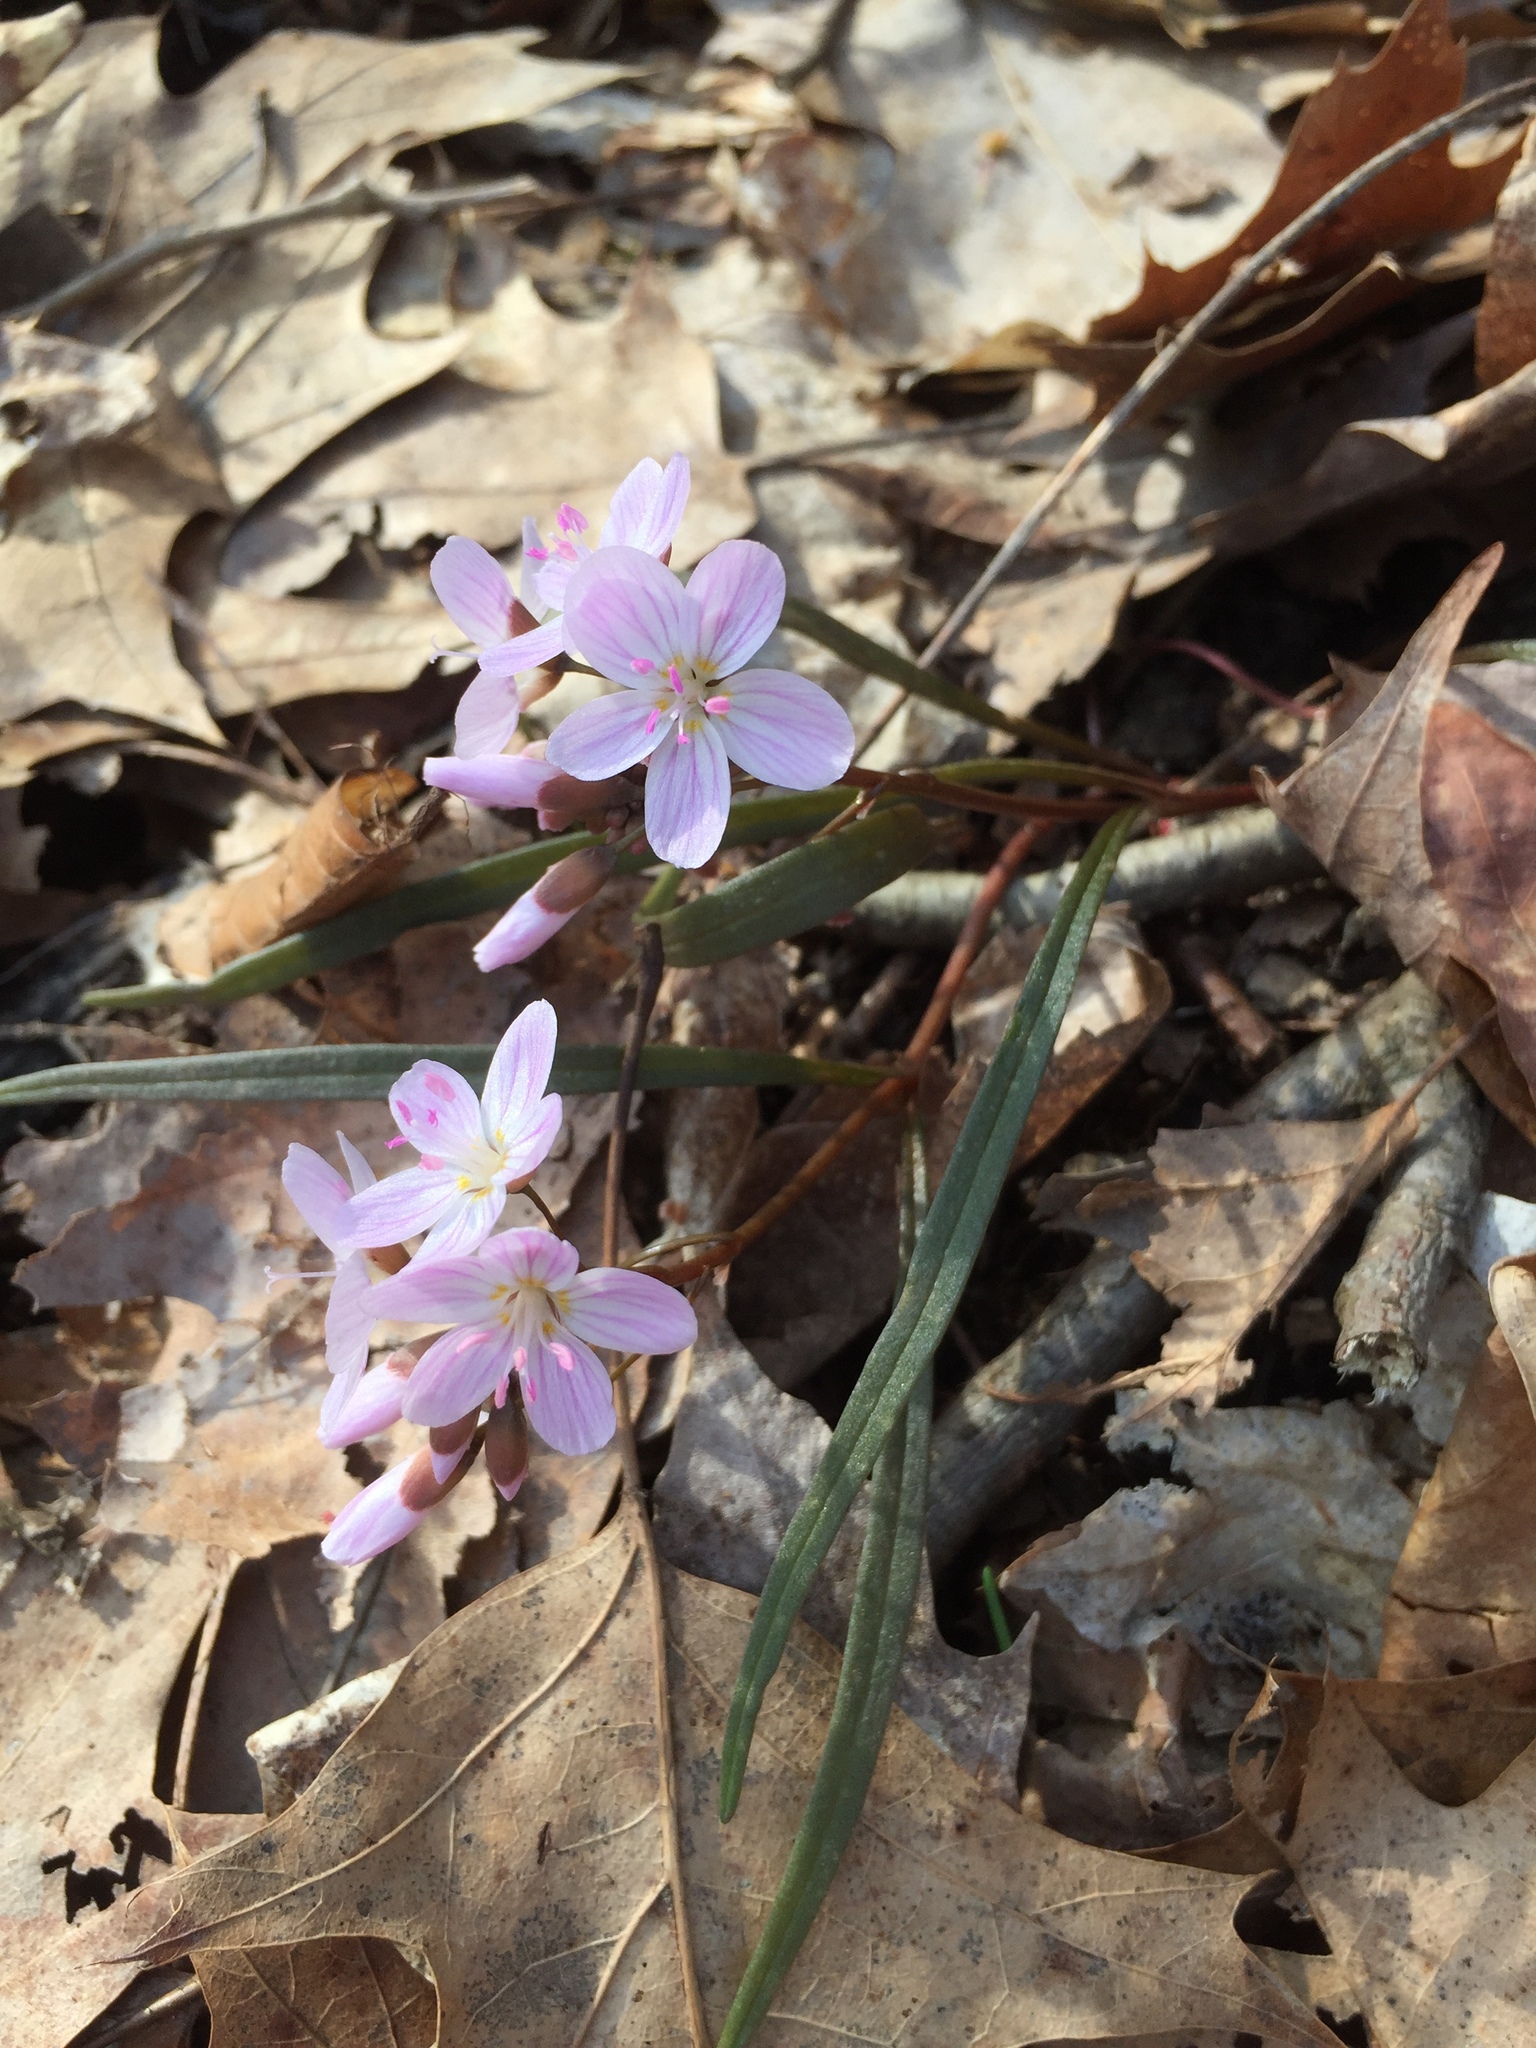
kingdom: Plantae
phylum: Tracheophyta
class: Magnoliopsida
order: Caryophyllales
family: Montiaceae
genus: Claytonia
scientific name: Claytonia virginica
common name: Virginia springbeauty
